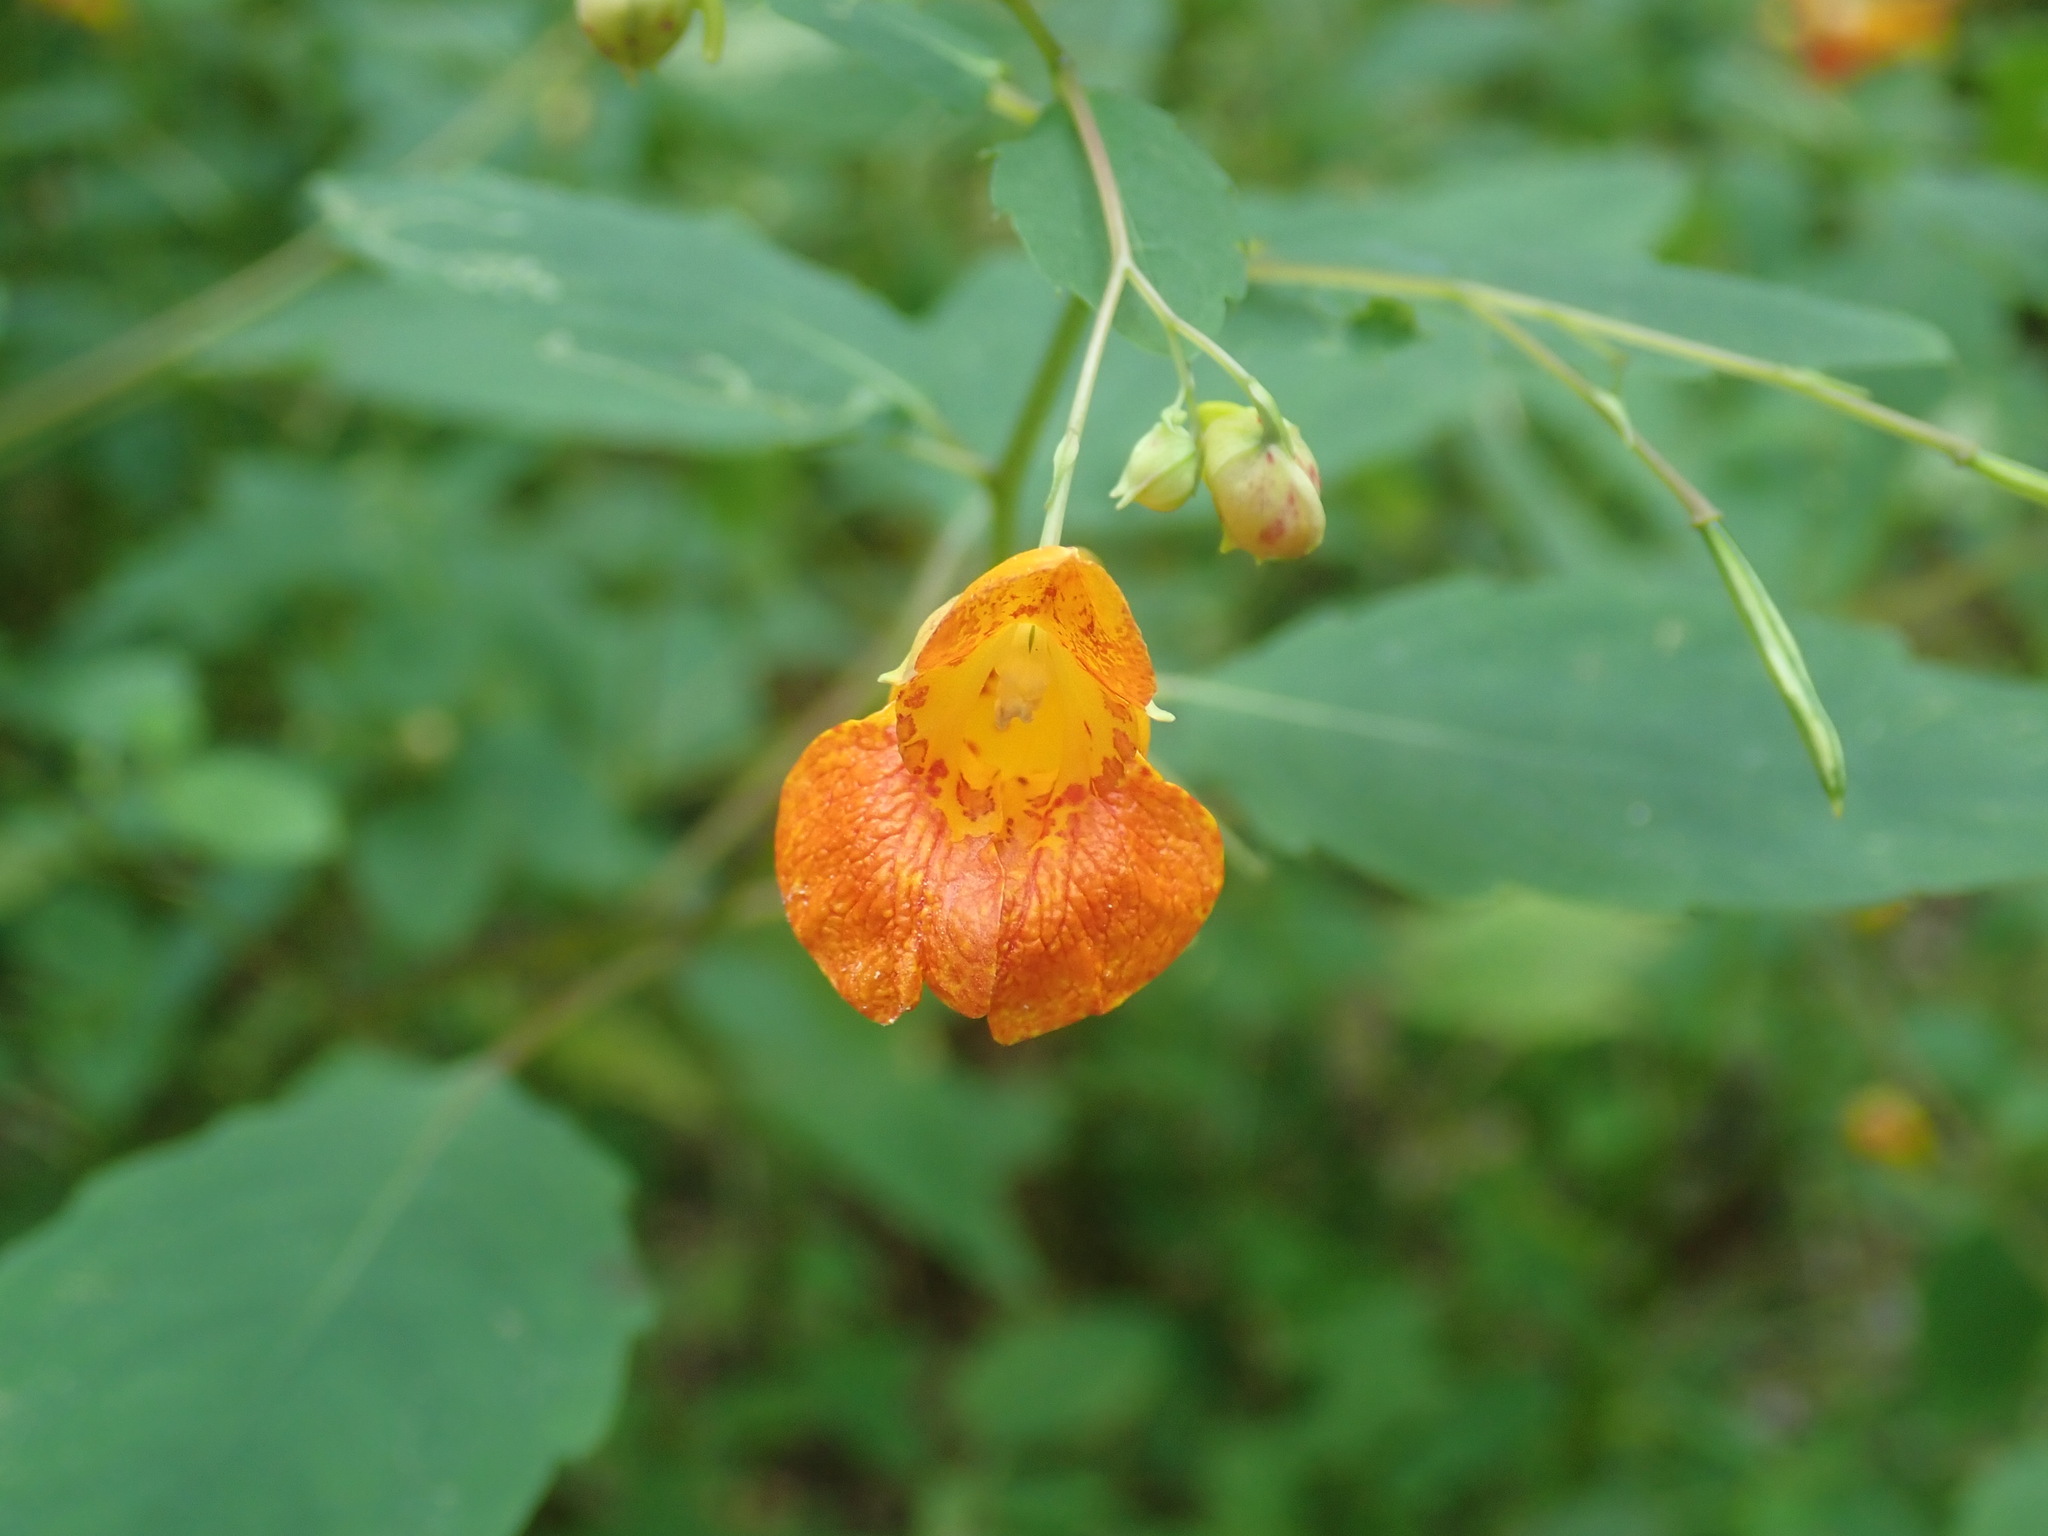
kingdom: Plantae
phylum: Tracheophyta
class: Magnoliopsida
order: Ericales
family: Balsaminaceae
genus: Impatiens
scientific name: Impatiens capensis
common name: Orange balsam
